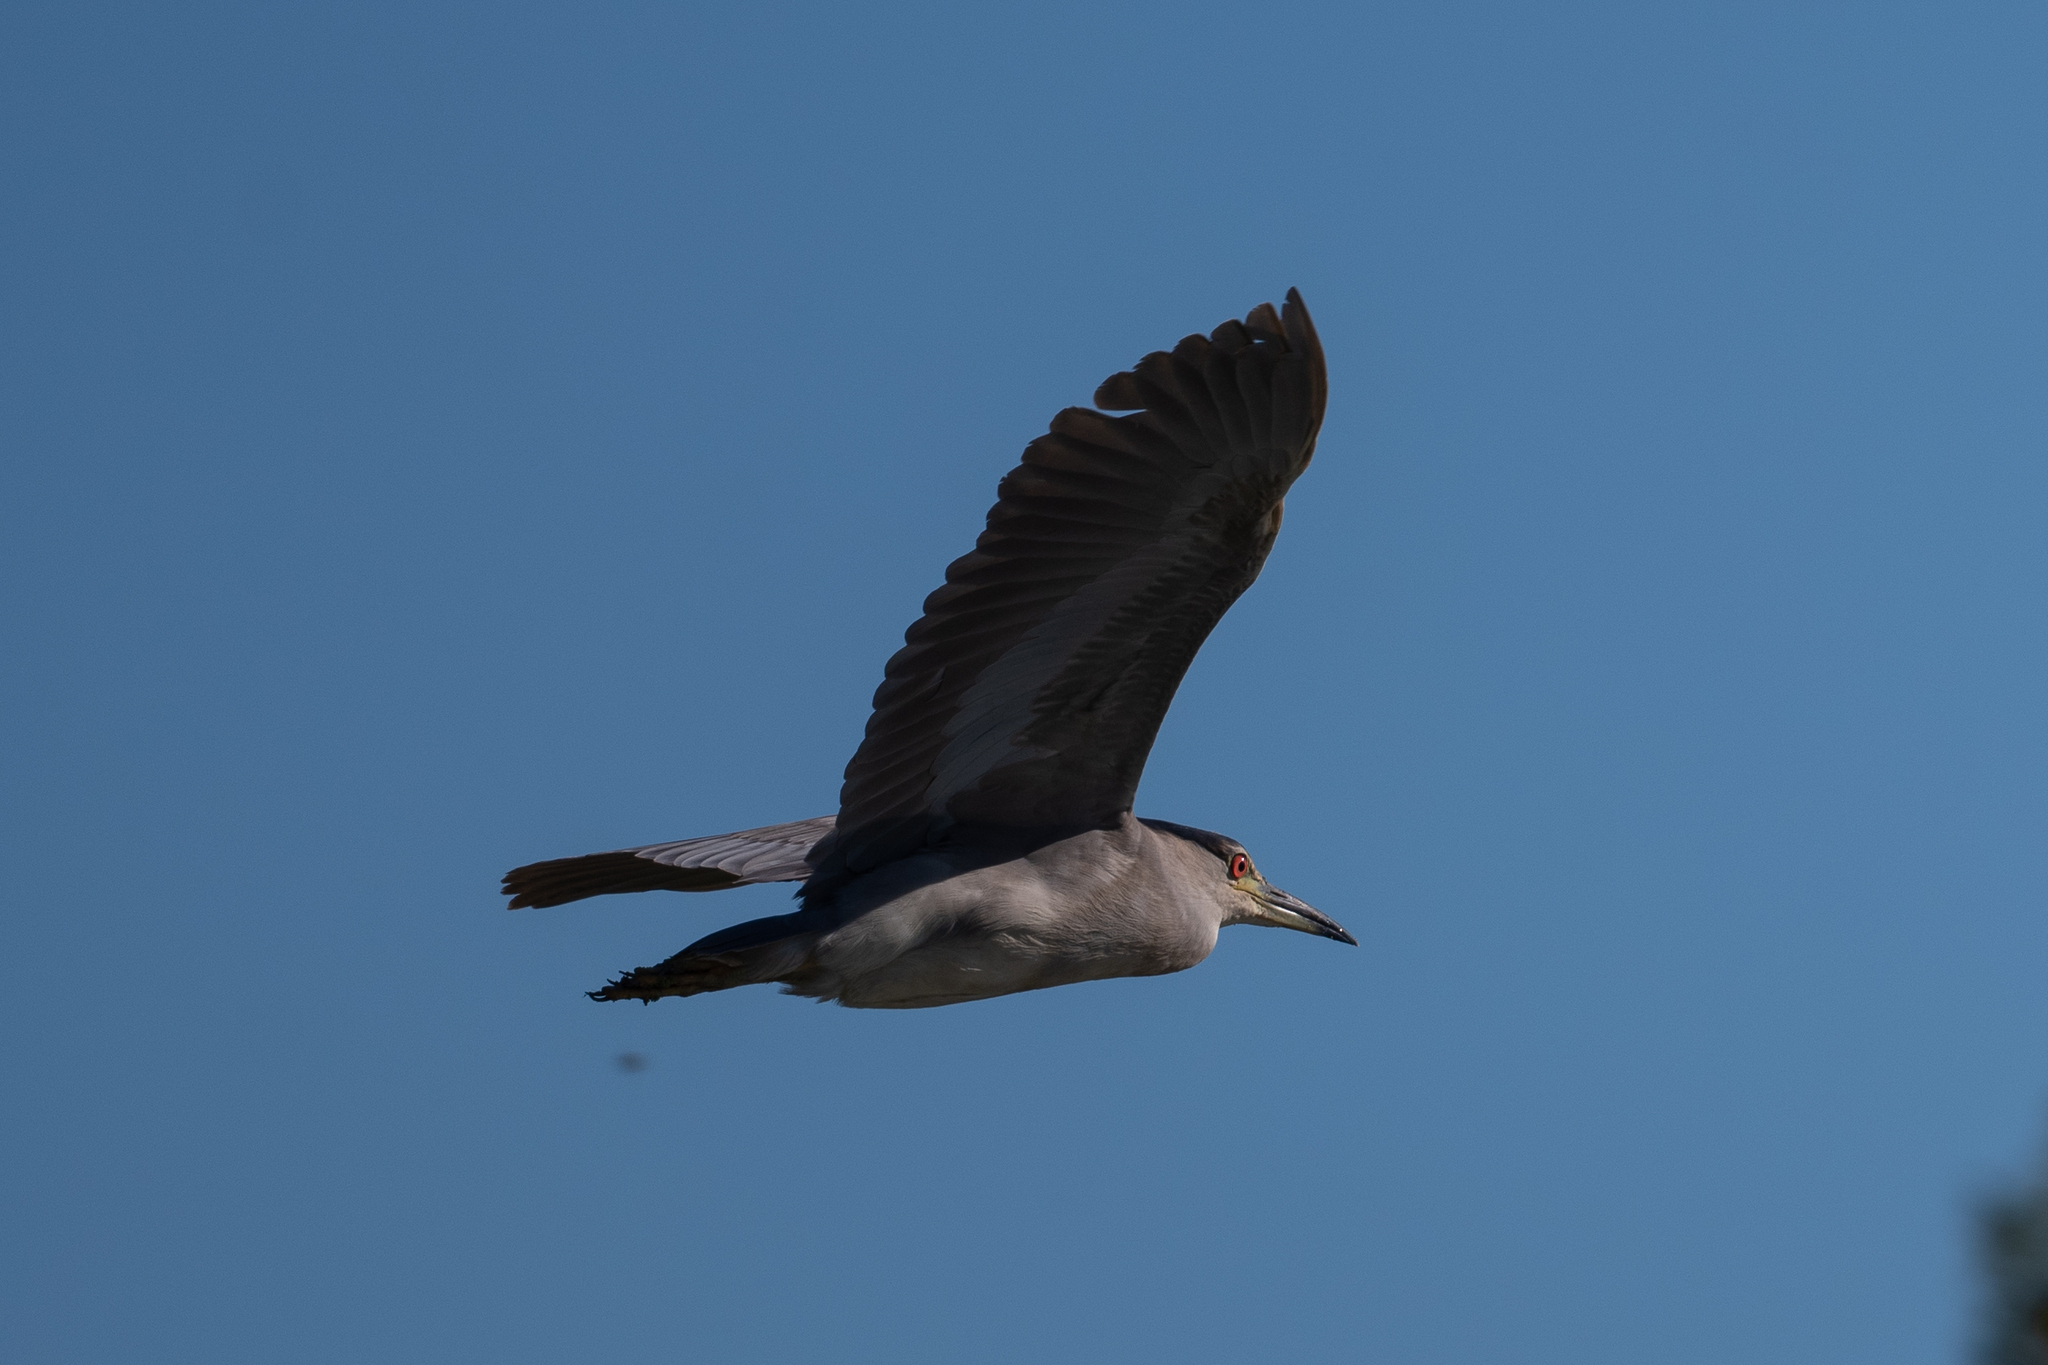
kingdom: Animalia
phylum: Chordata
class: Aves
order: Pelecaniformes
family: Ardeidae
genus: Nycticorax
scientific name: Nycticorax nycticorax
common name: Black-crowned night heron
